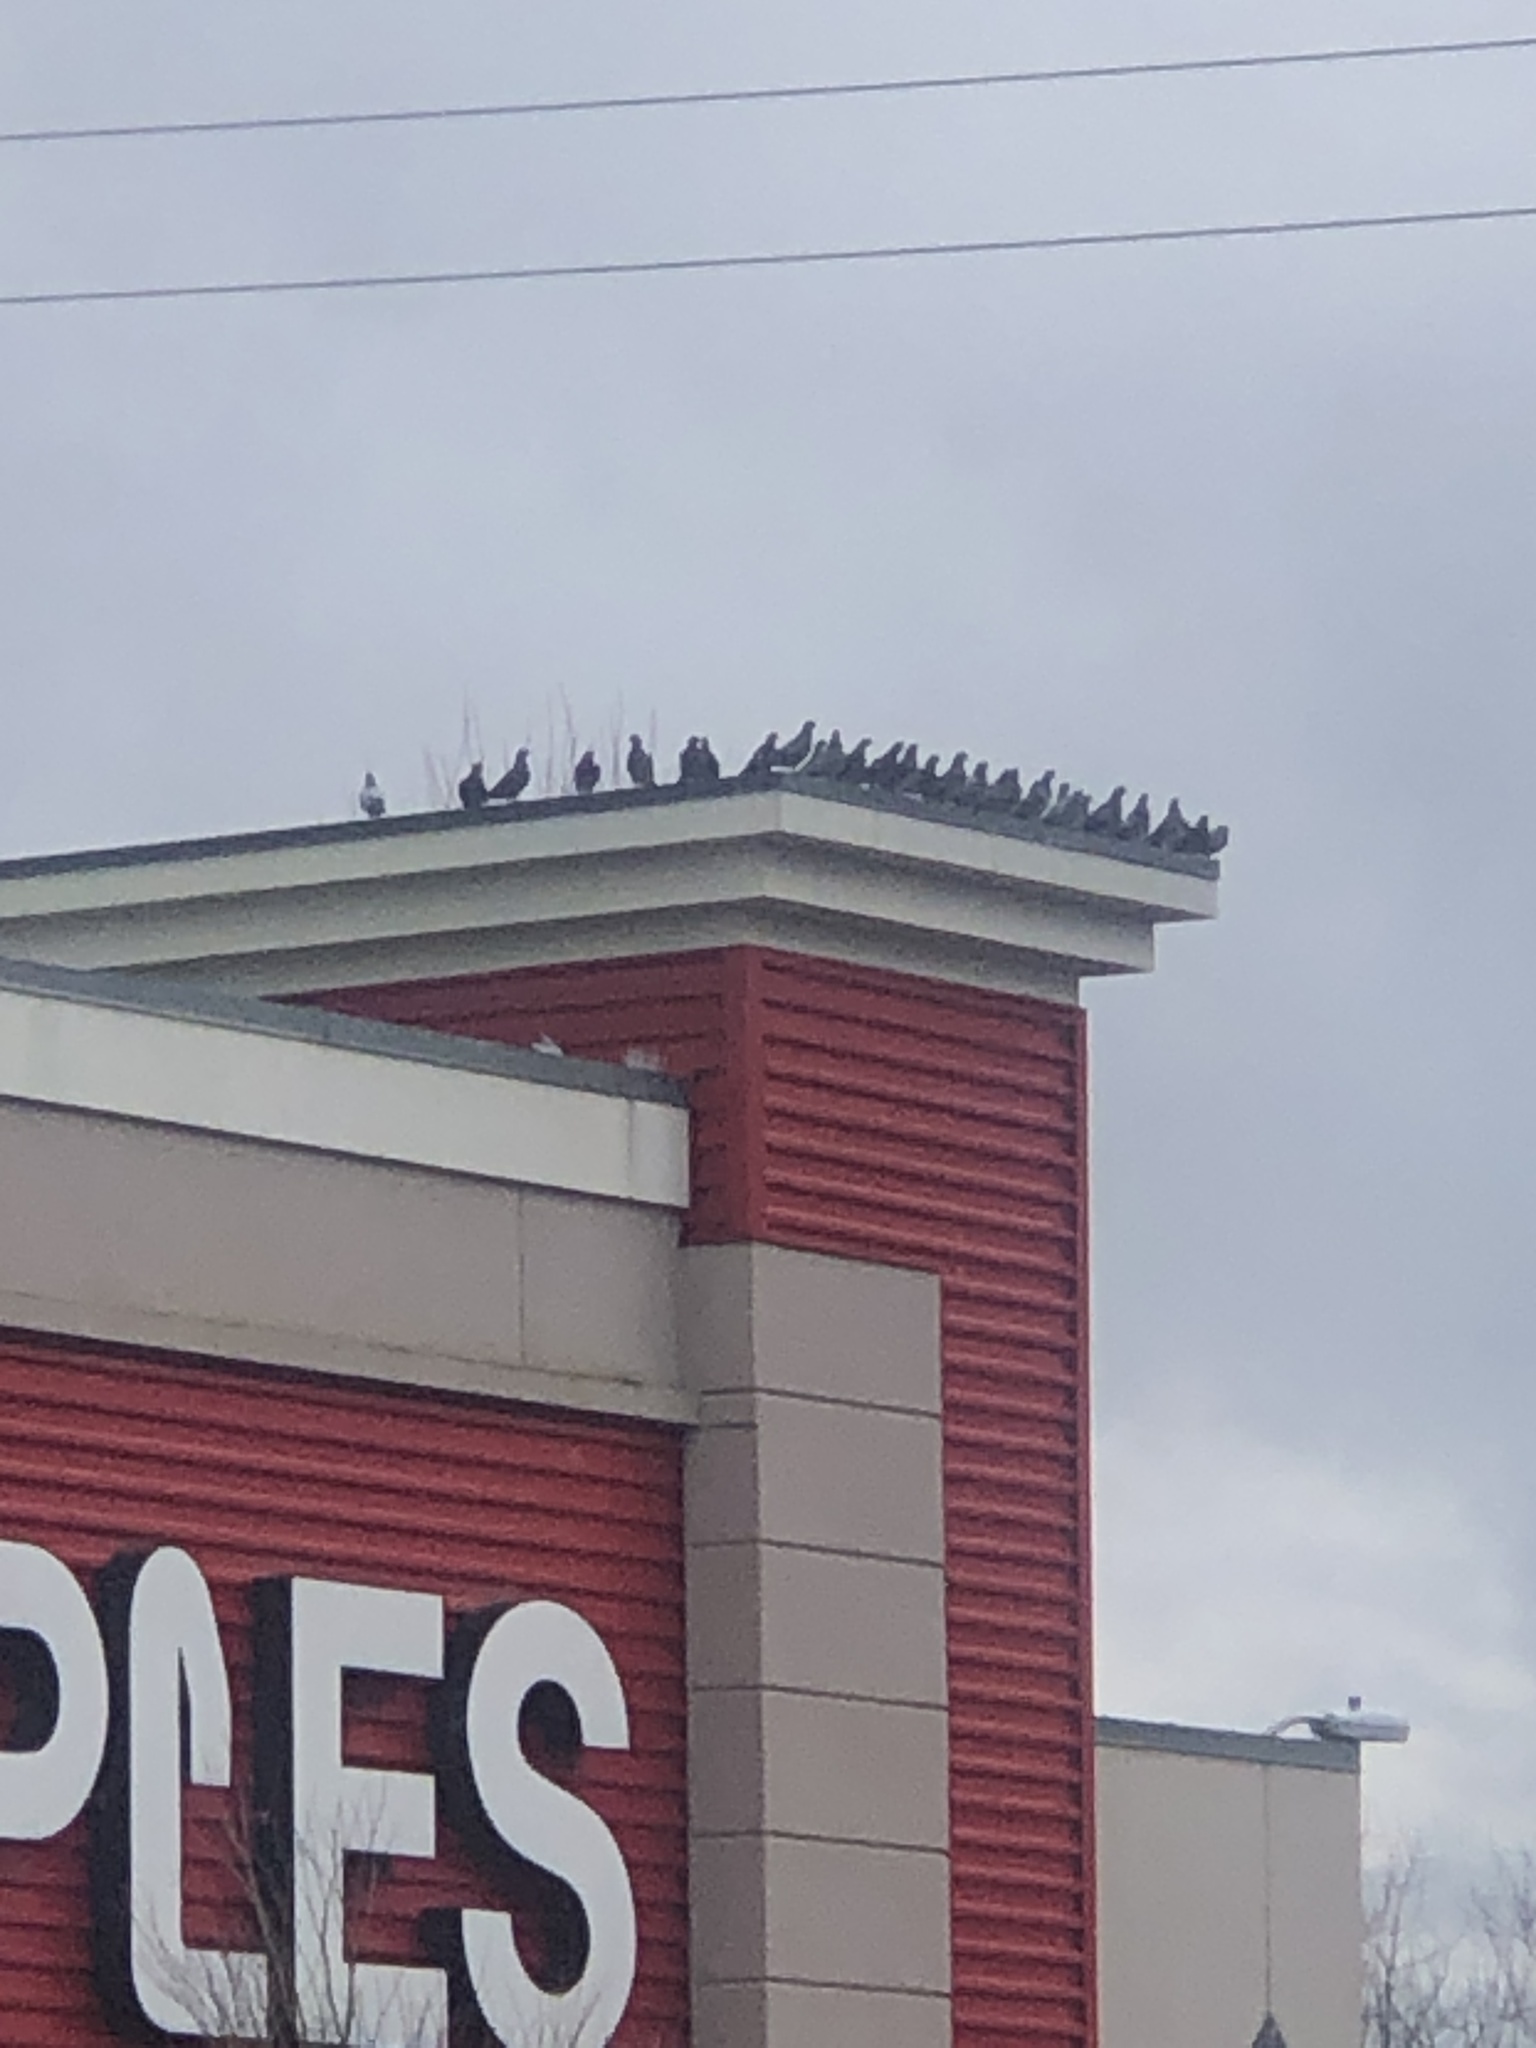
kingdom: Animalia
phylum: Chordata
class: Aves
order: Columbiformes
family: Columbidae
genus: Columba
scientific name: Columba livia
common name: Rock pigeon
